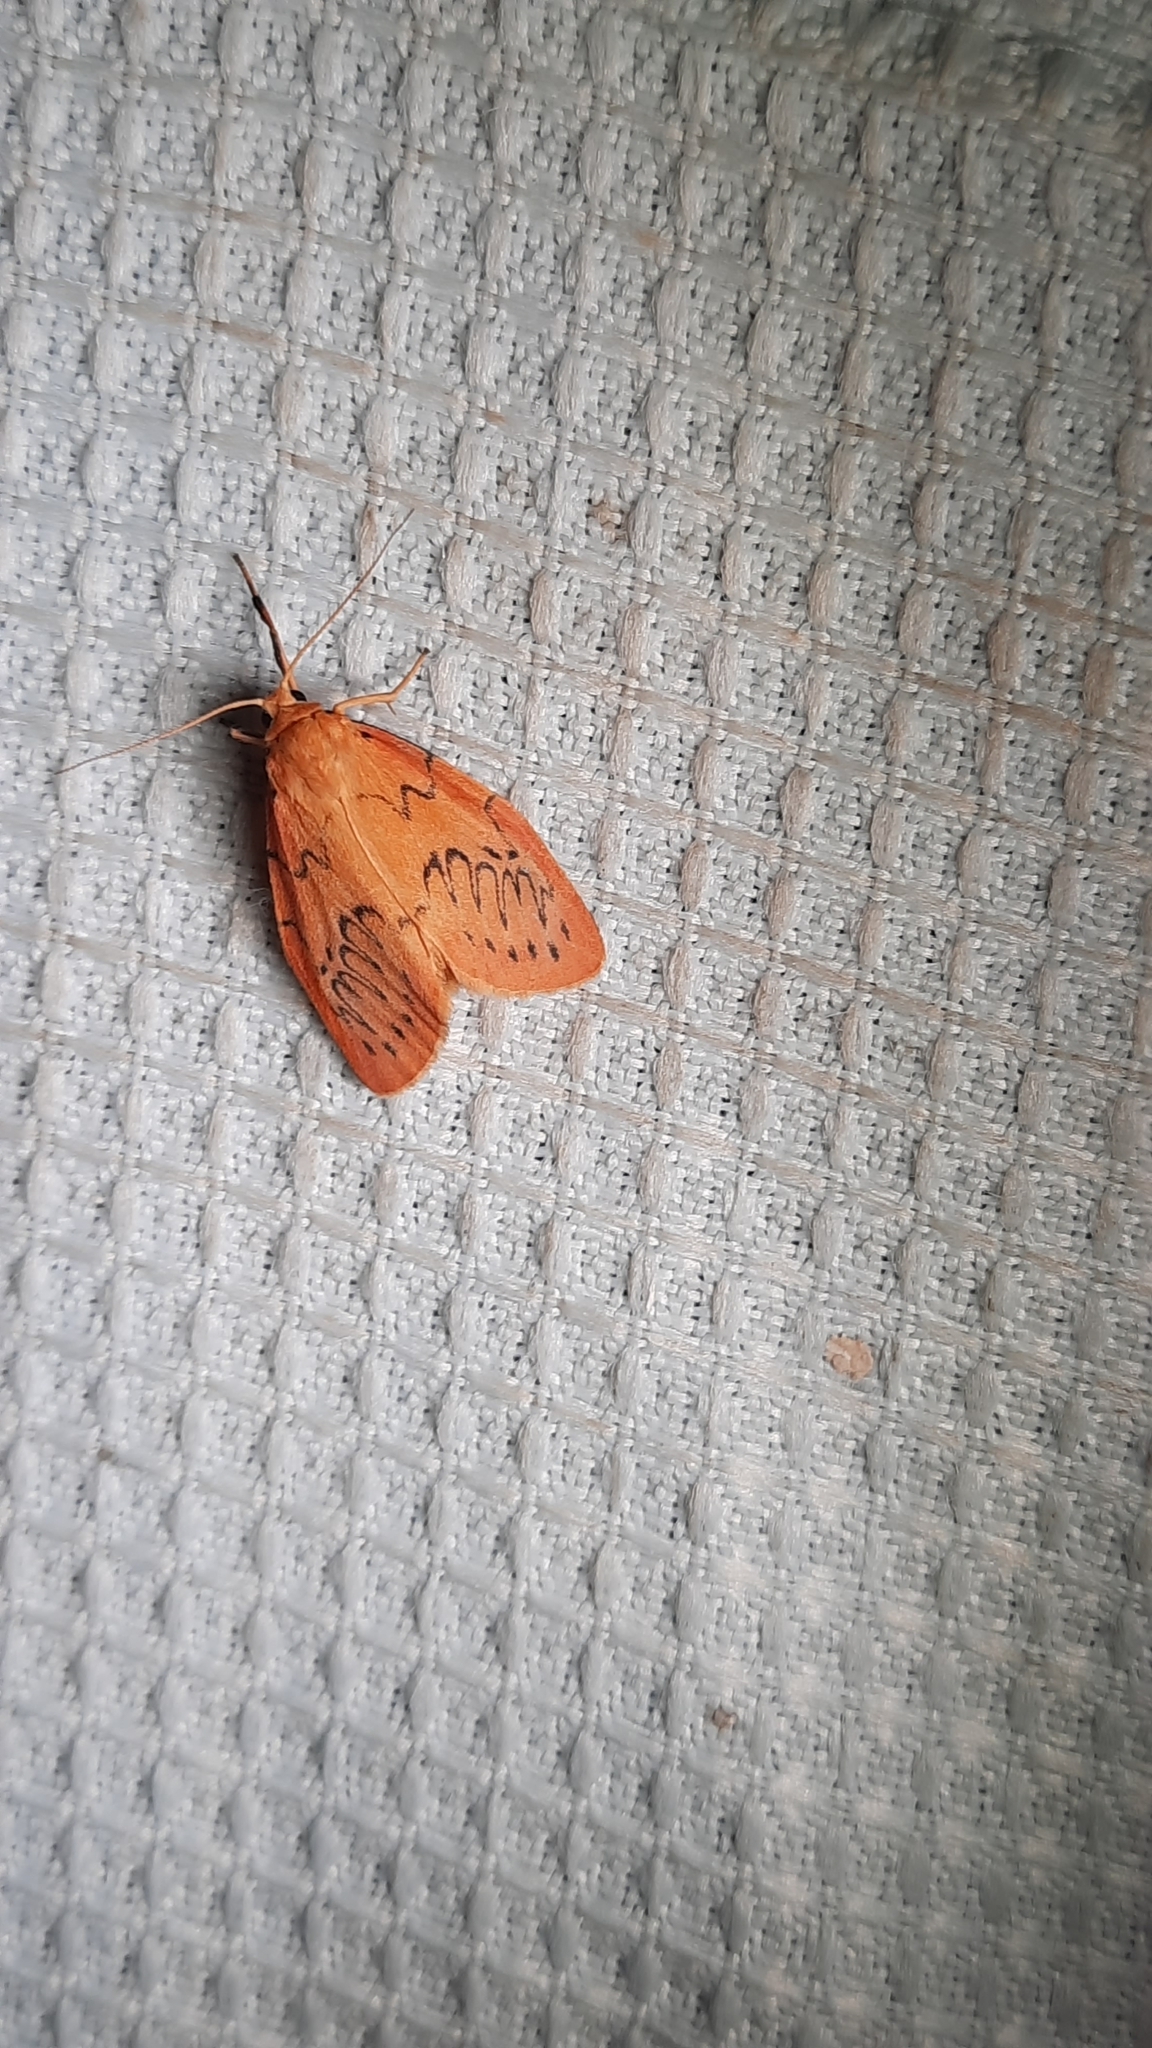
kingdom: Animalia
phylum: Arthropoda
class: Insecta
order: Lepidoptera
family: Erebidae
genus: Miltochrista
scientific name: Miltochrista miniata
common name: Rosy footman
